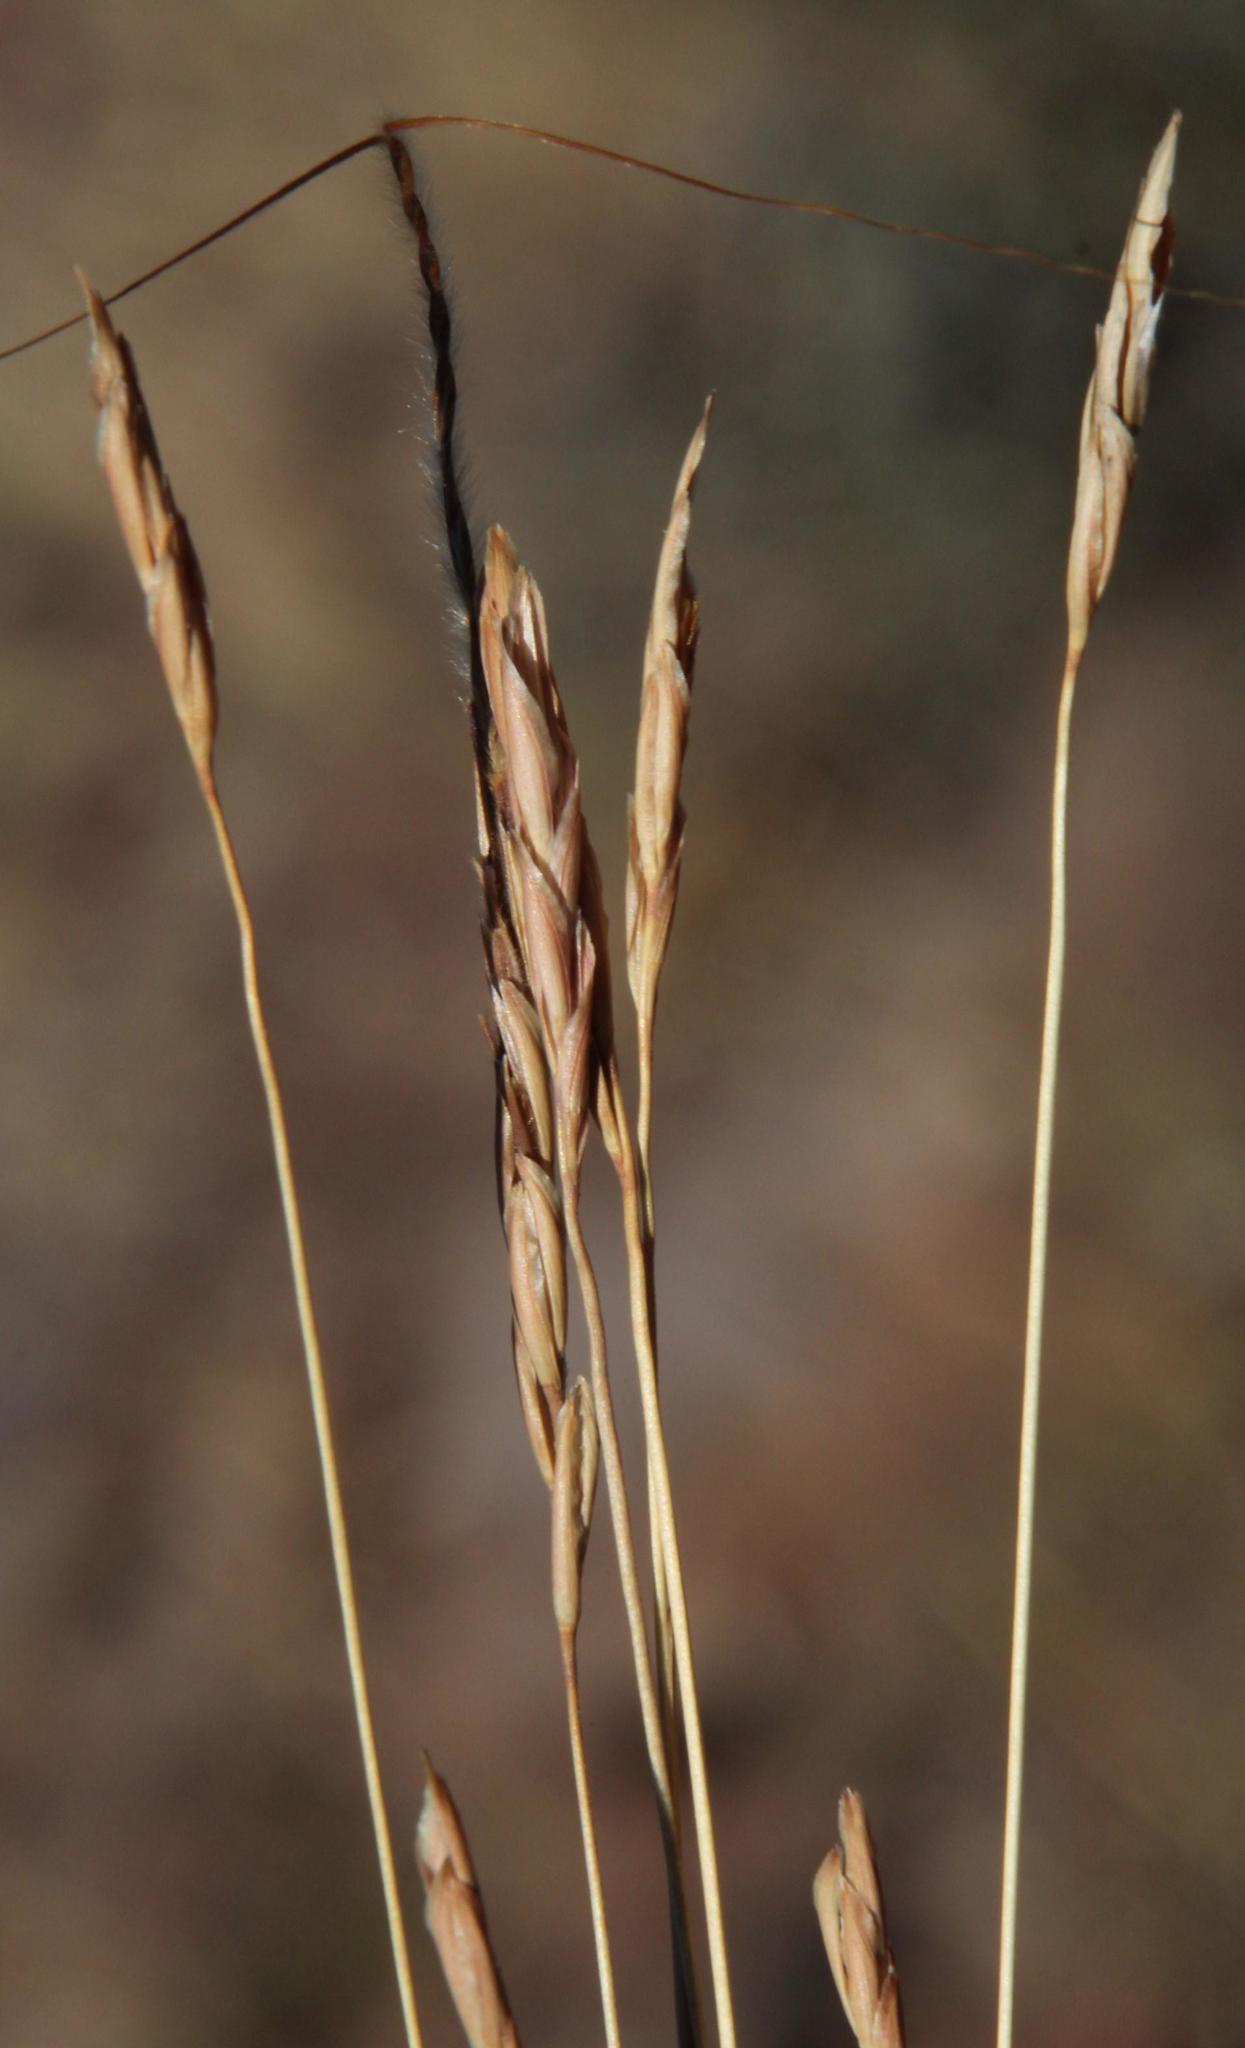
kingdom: Plantae
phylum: Tracheophyta
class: Liliopsida
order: Poales
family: Poaceae
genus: Heteropogon
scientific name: Heteropogon contortus
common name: Tanglehead
